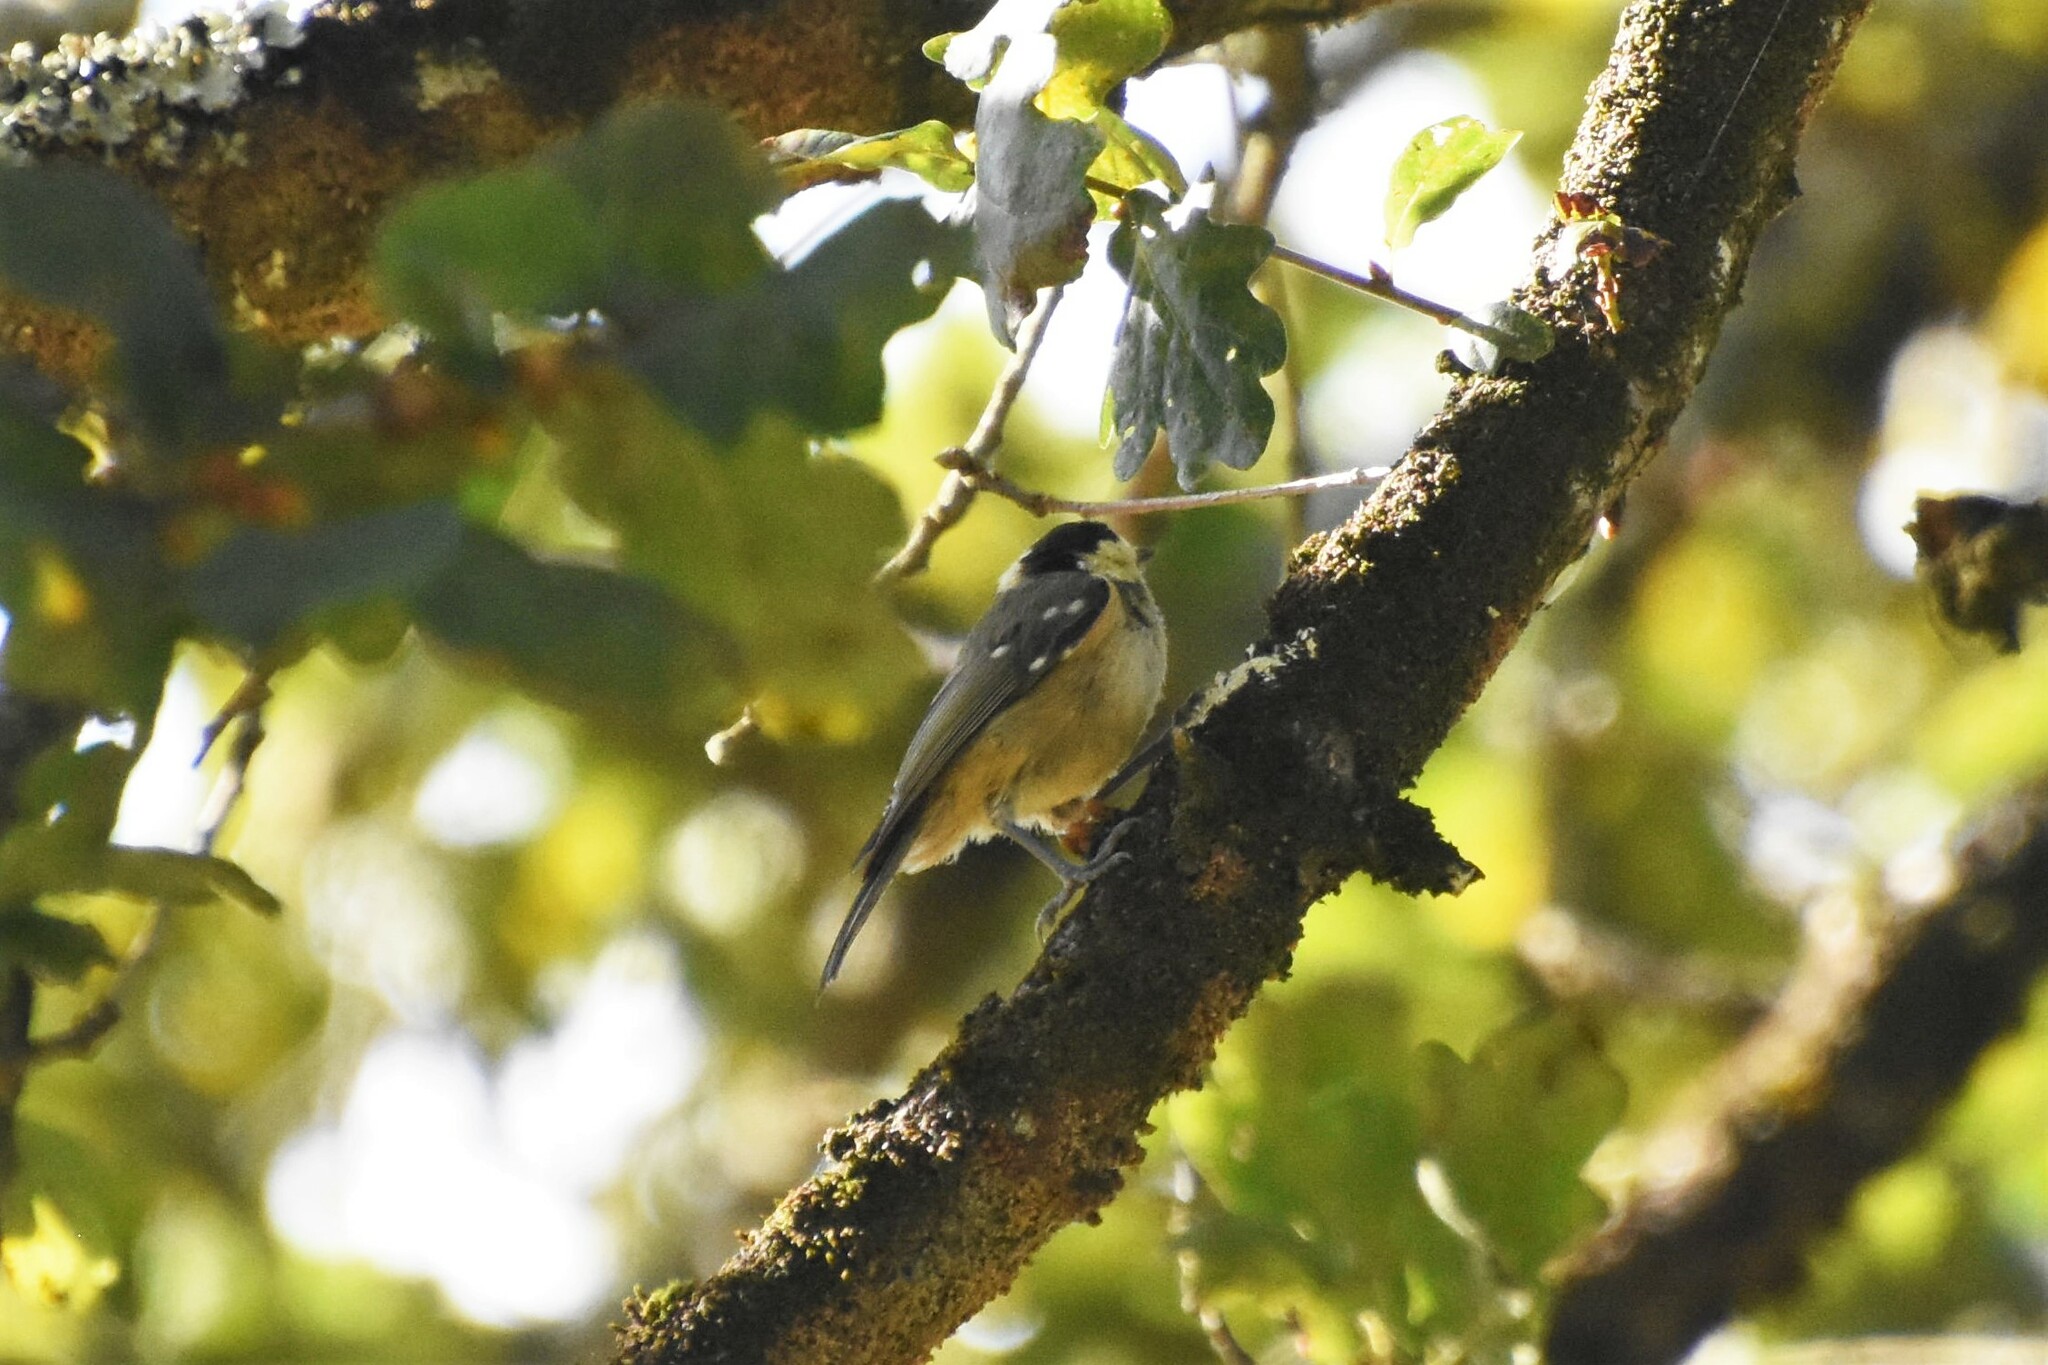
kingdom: Animalia
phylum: Chordata
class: Aves
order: Passeriformes
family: Paridae
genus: Periparus
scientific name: Periparus ater
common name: Coal tit
